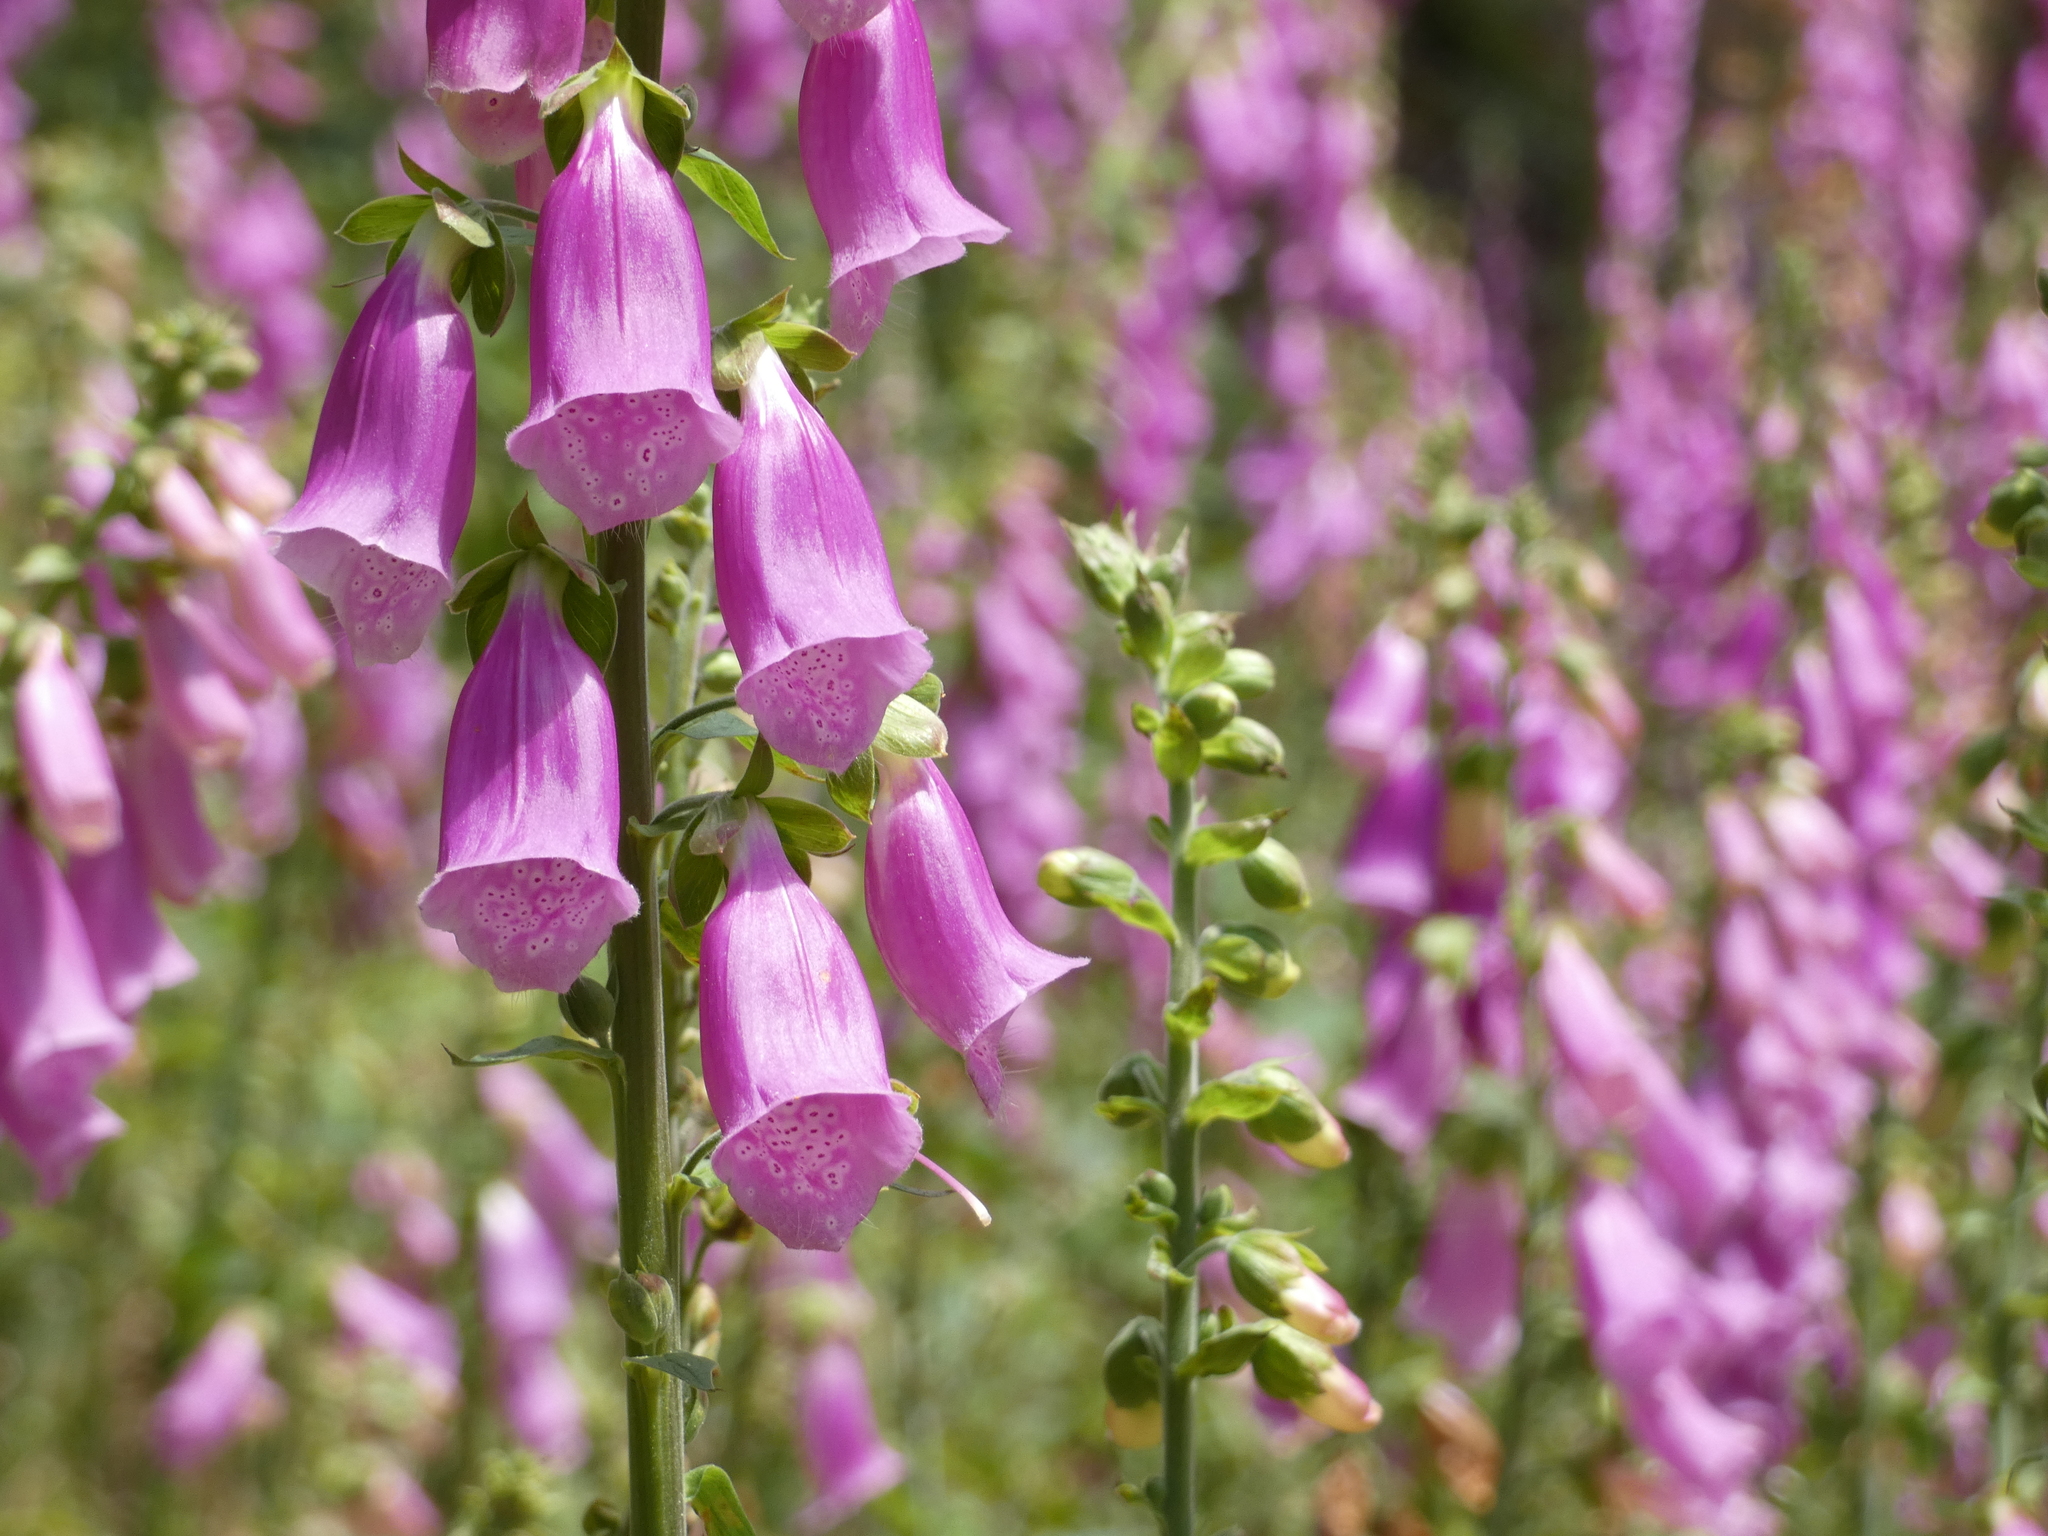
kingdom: Plantae
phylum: Tracheophyta
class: Magnoliopsida
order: Lamiales
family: Plantaginaceae
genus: Digitalis
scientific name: Digitalis purpurea
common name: Foxglove
